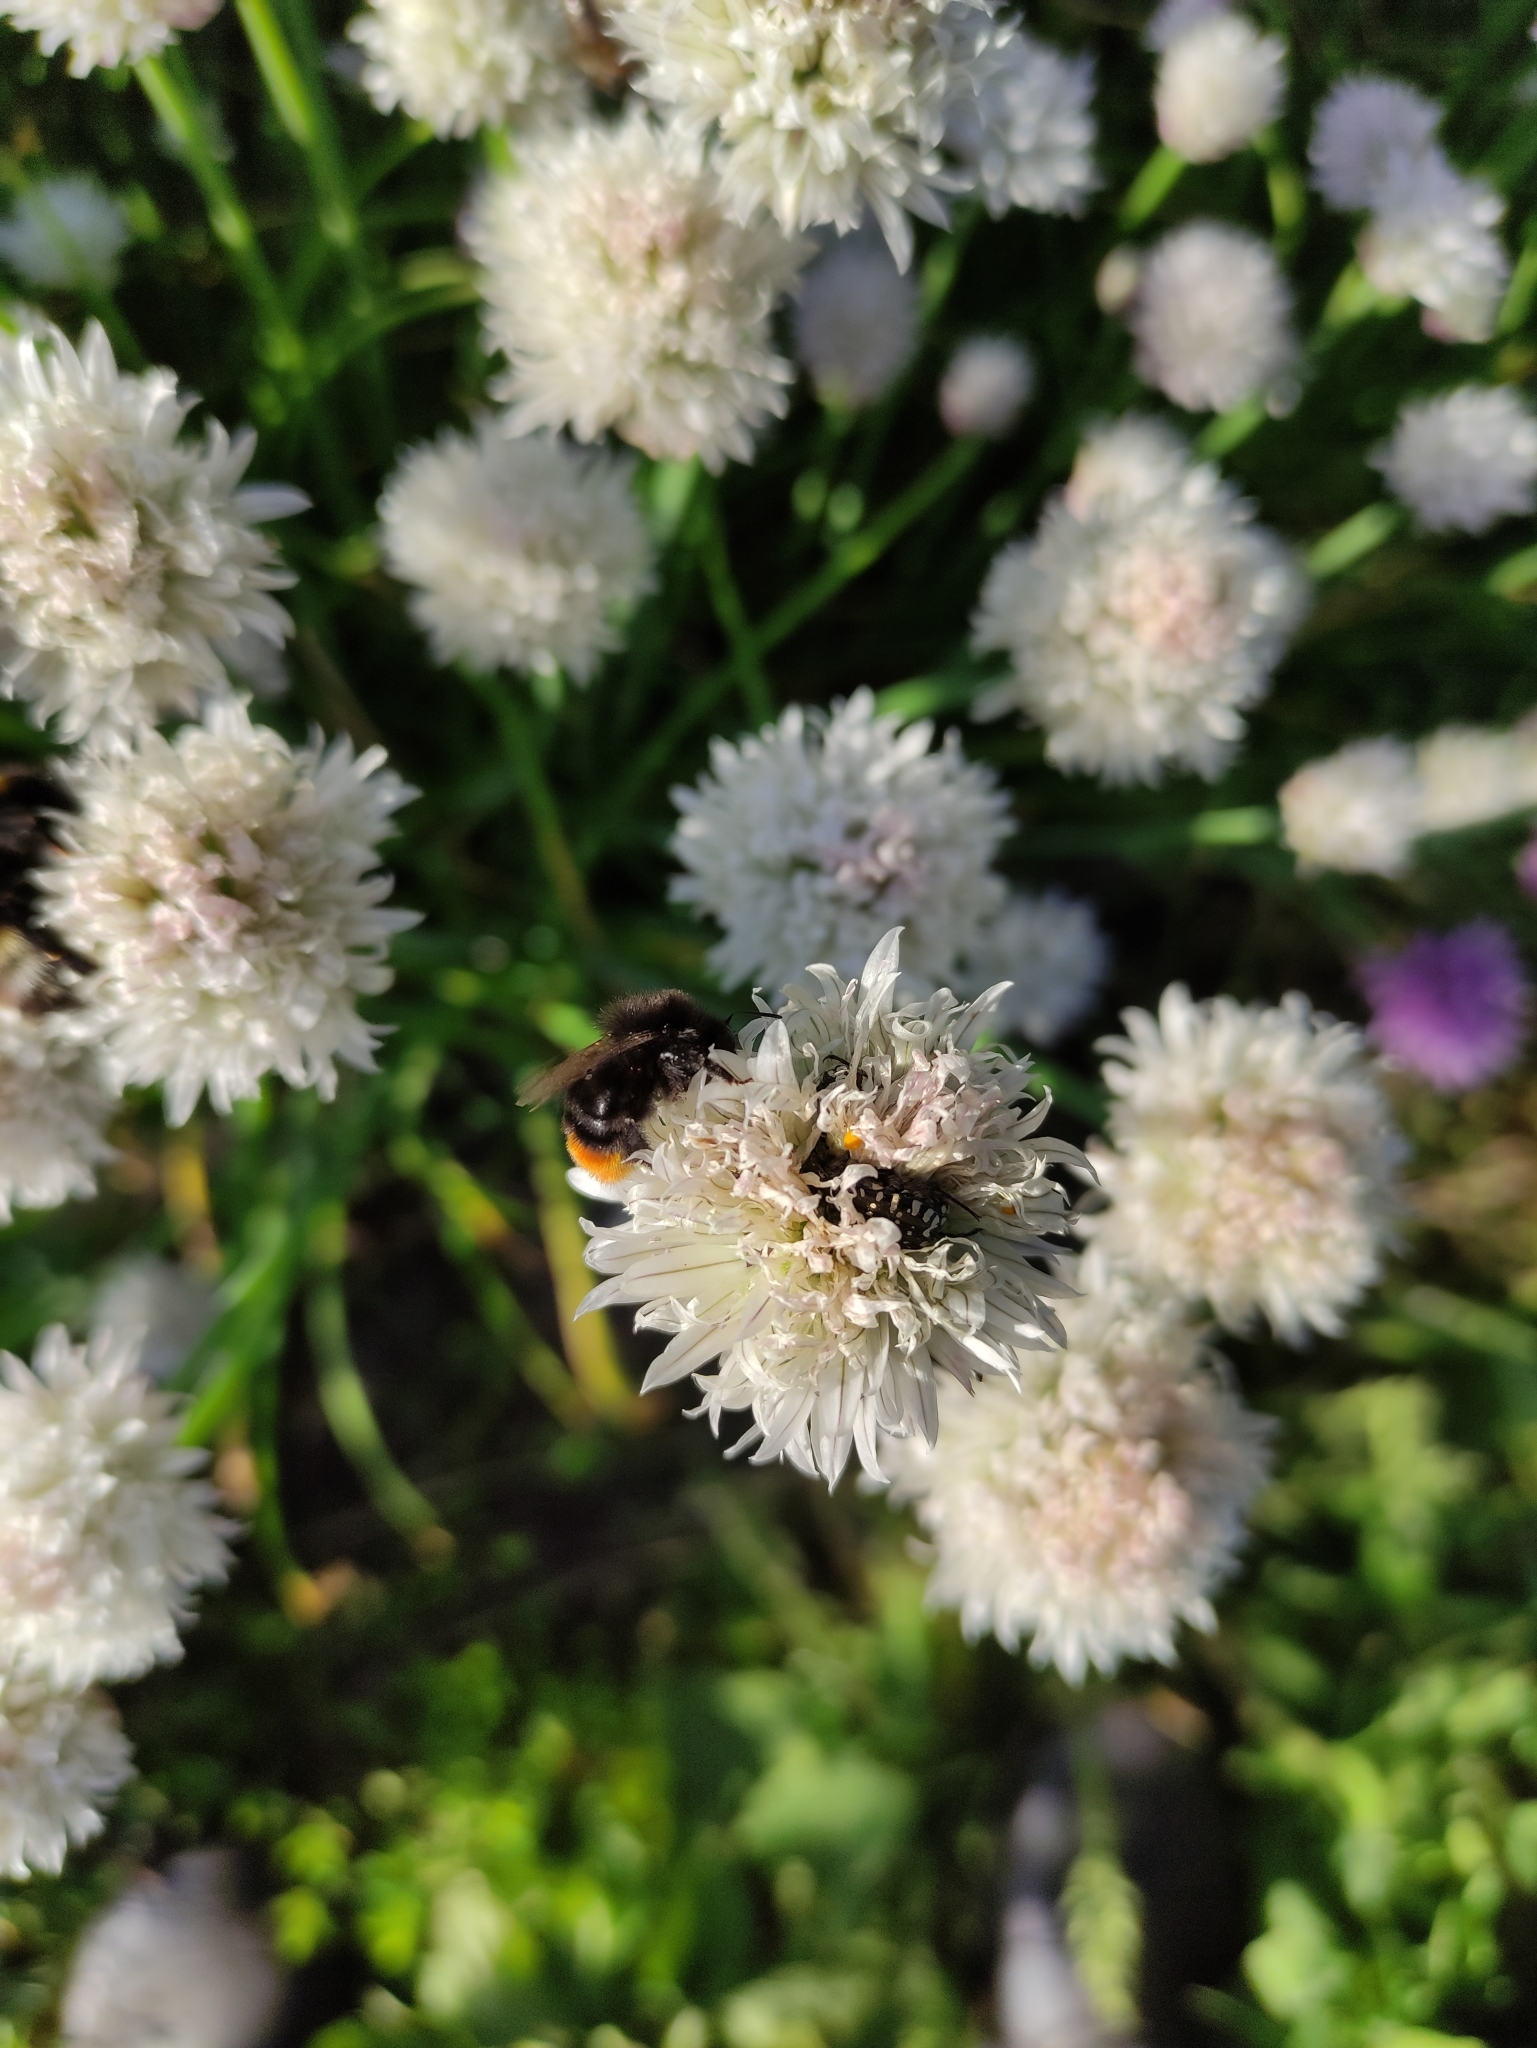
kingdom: Animalia
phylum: Arthropoda
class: Insecta
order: Hymenoptera
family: Apidae
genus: Bombus
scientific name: Bombus lapidarius
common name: Large red-tailed humble-bee
